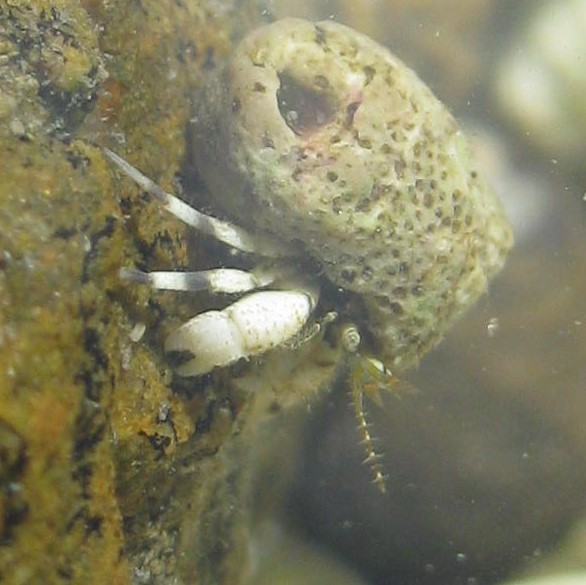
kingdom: Animalia
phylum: Arthropoda
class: Malacostraca
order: Decapoda
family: Paguridae
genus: Pagurus
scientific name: Pagurus novizealandiae
